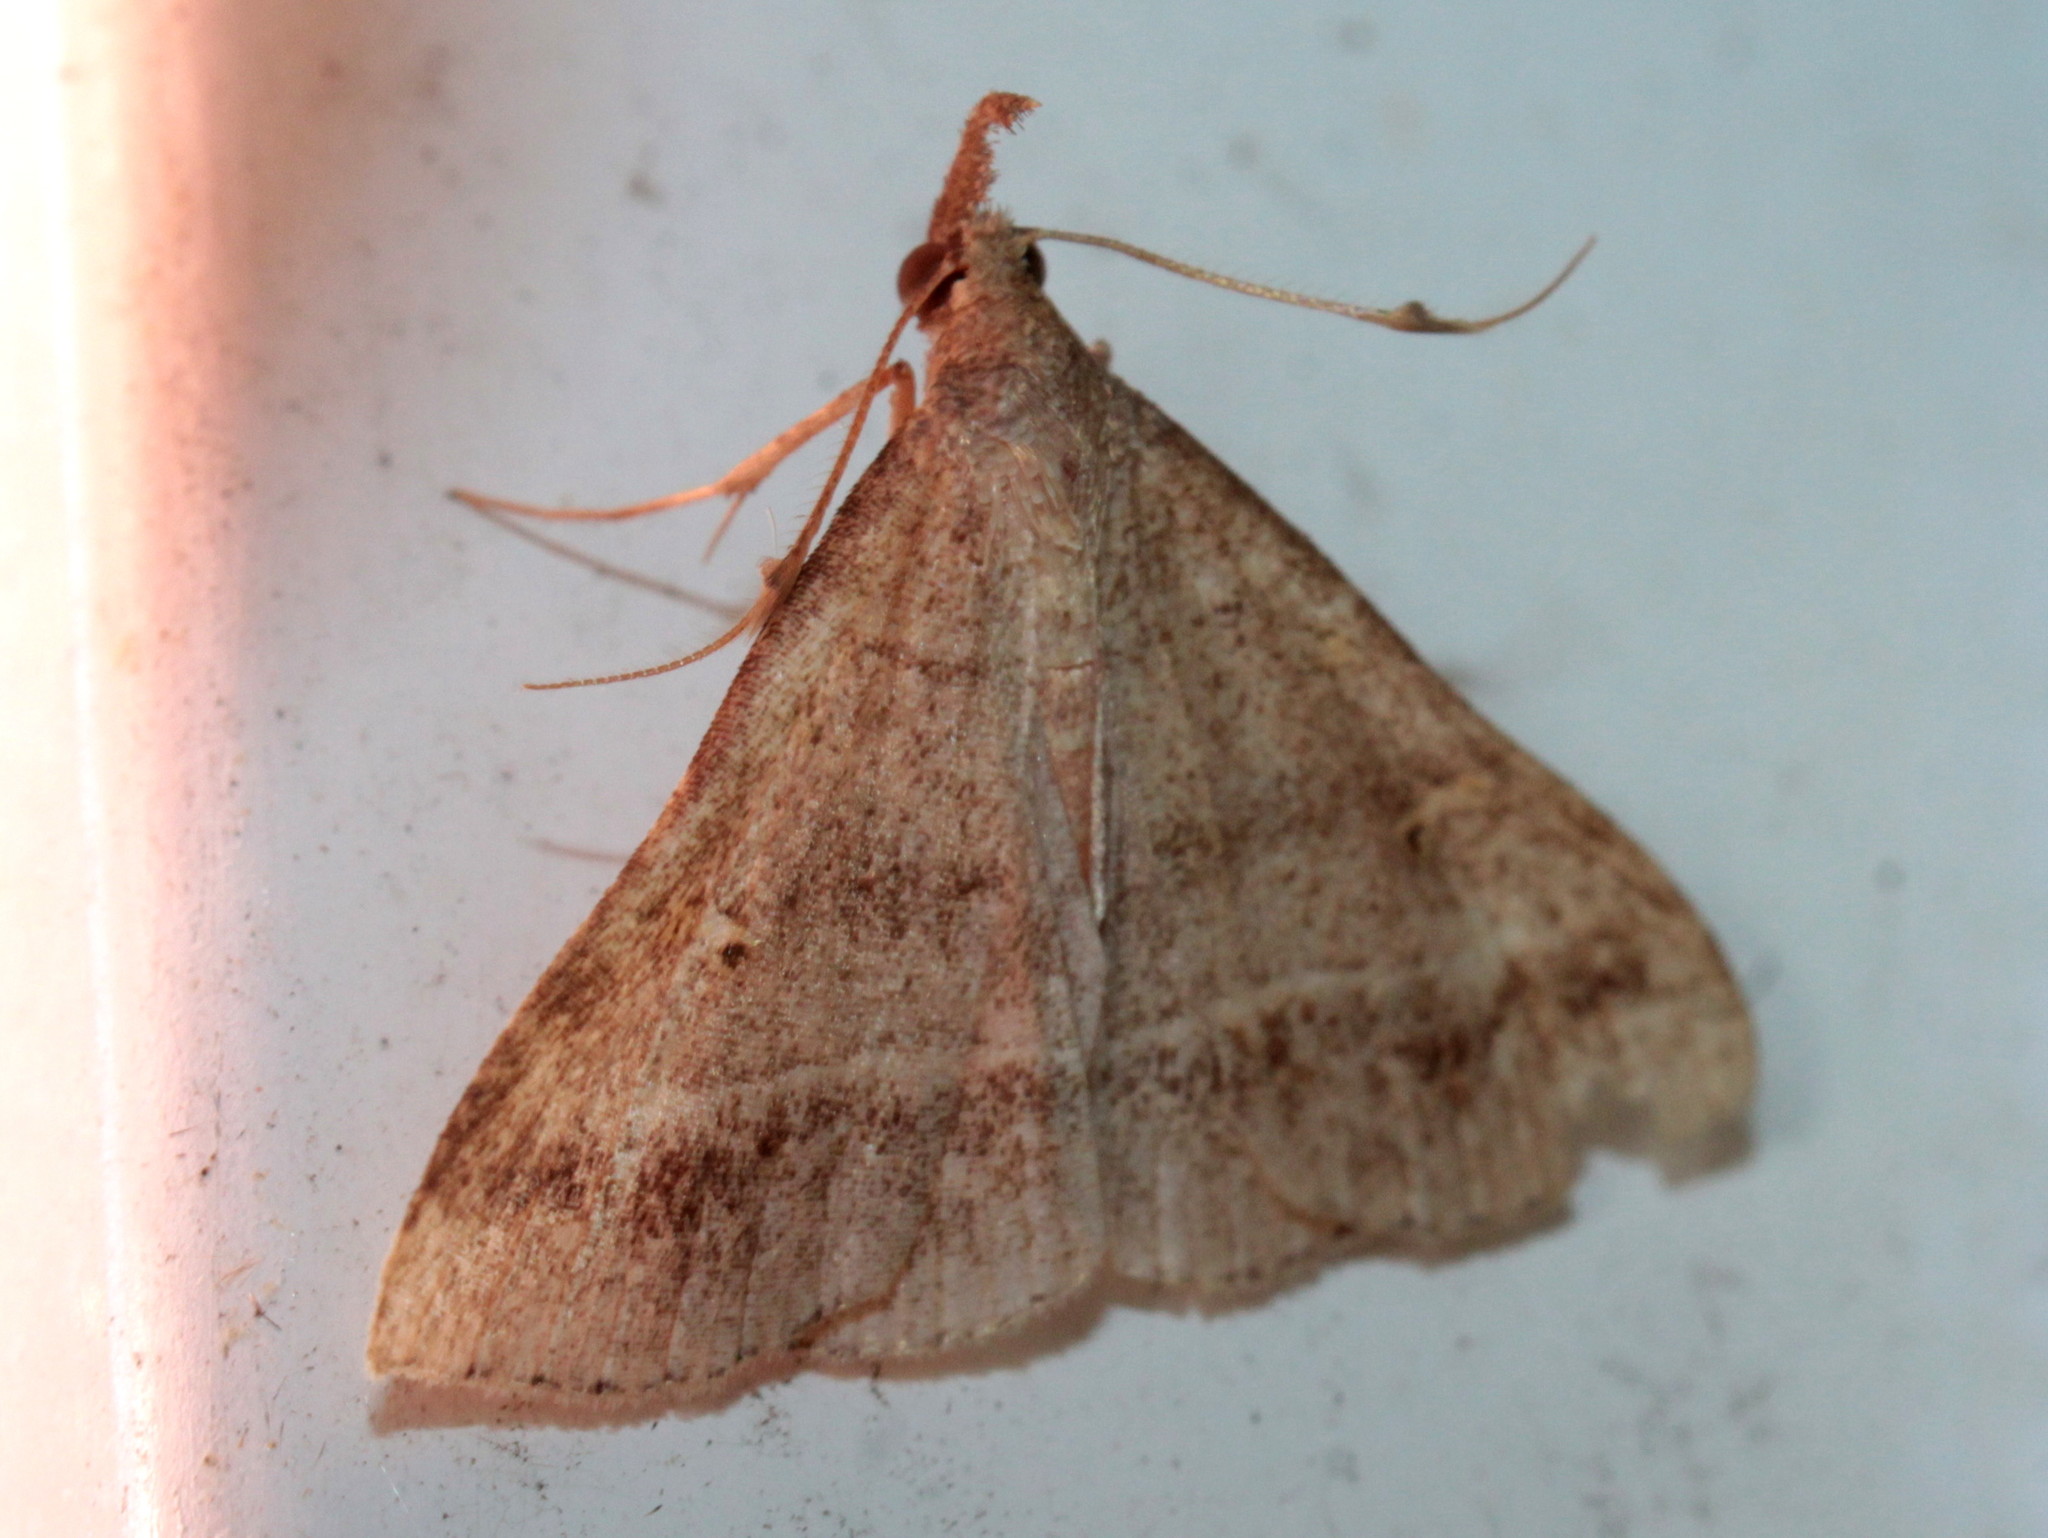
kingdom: Animalia
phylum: Arthropoda
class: Insecta
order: Lepidoptera
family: Erebidae
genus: Renia
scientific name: Renia flavipunctalis
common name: Yellow-spotted renia moth
